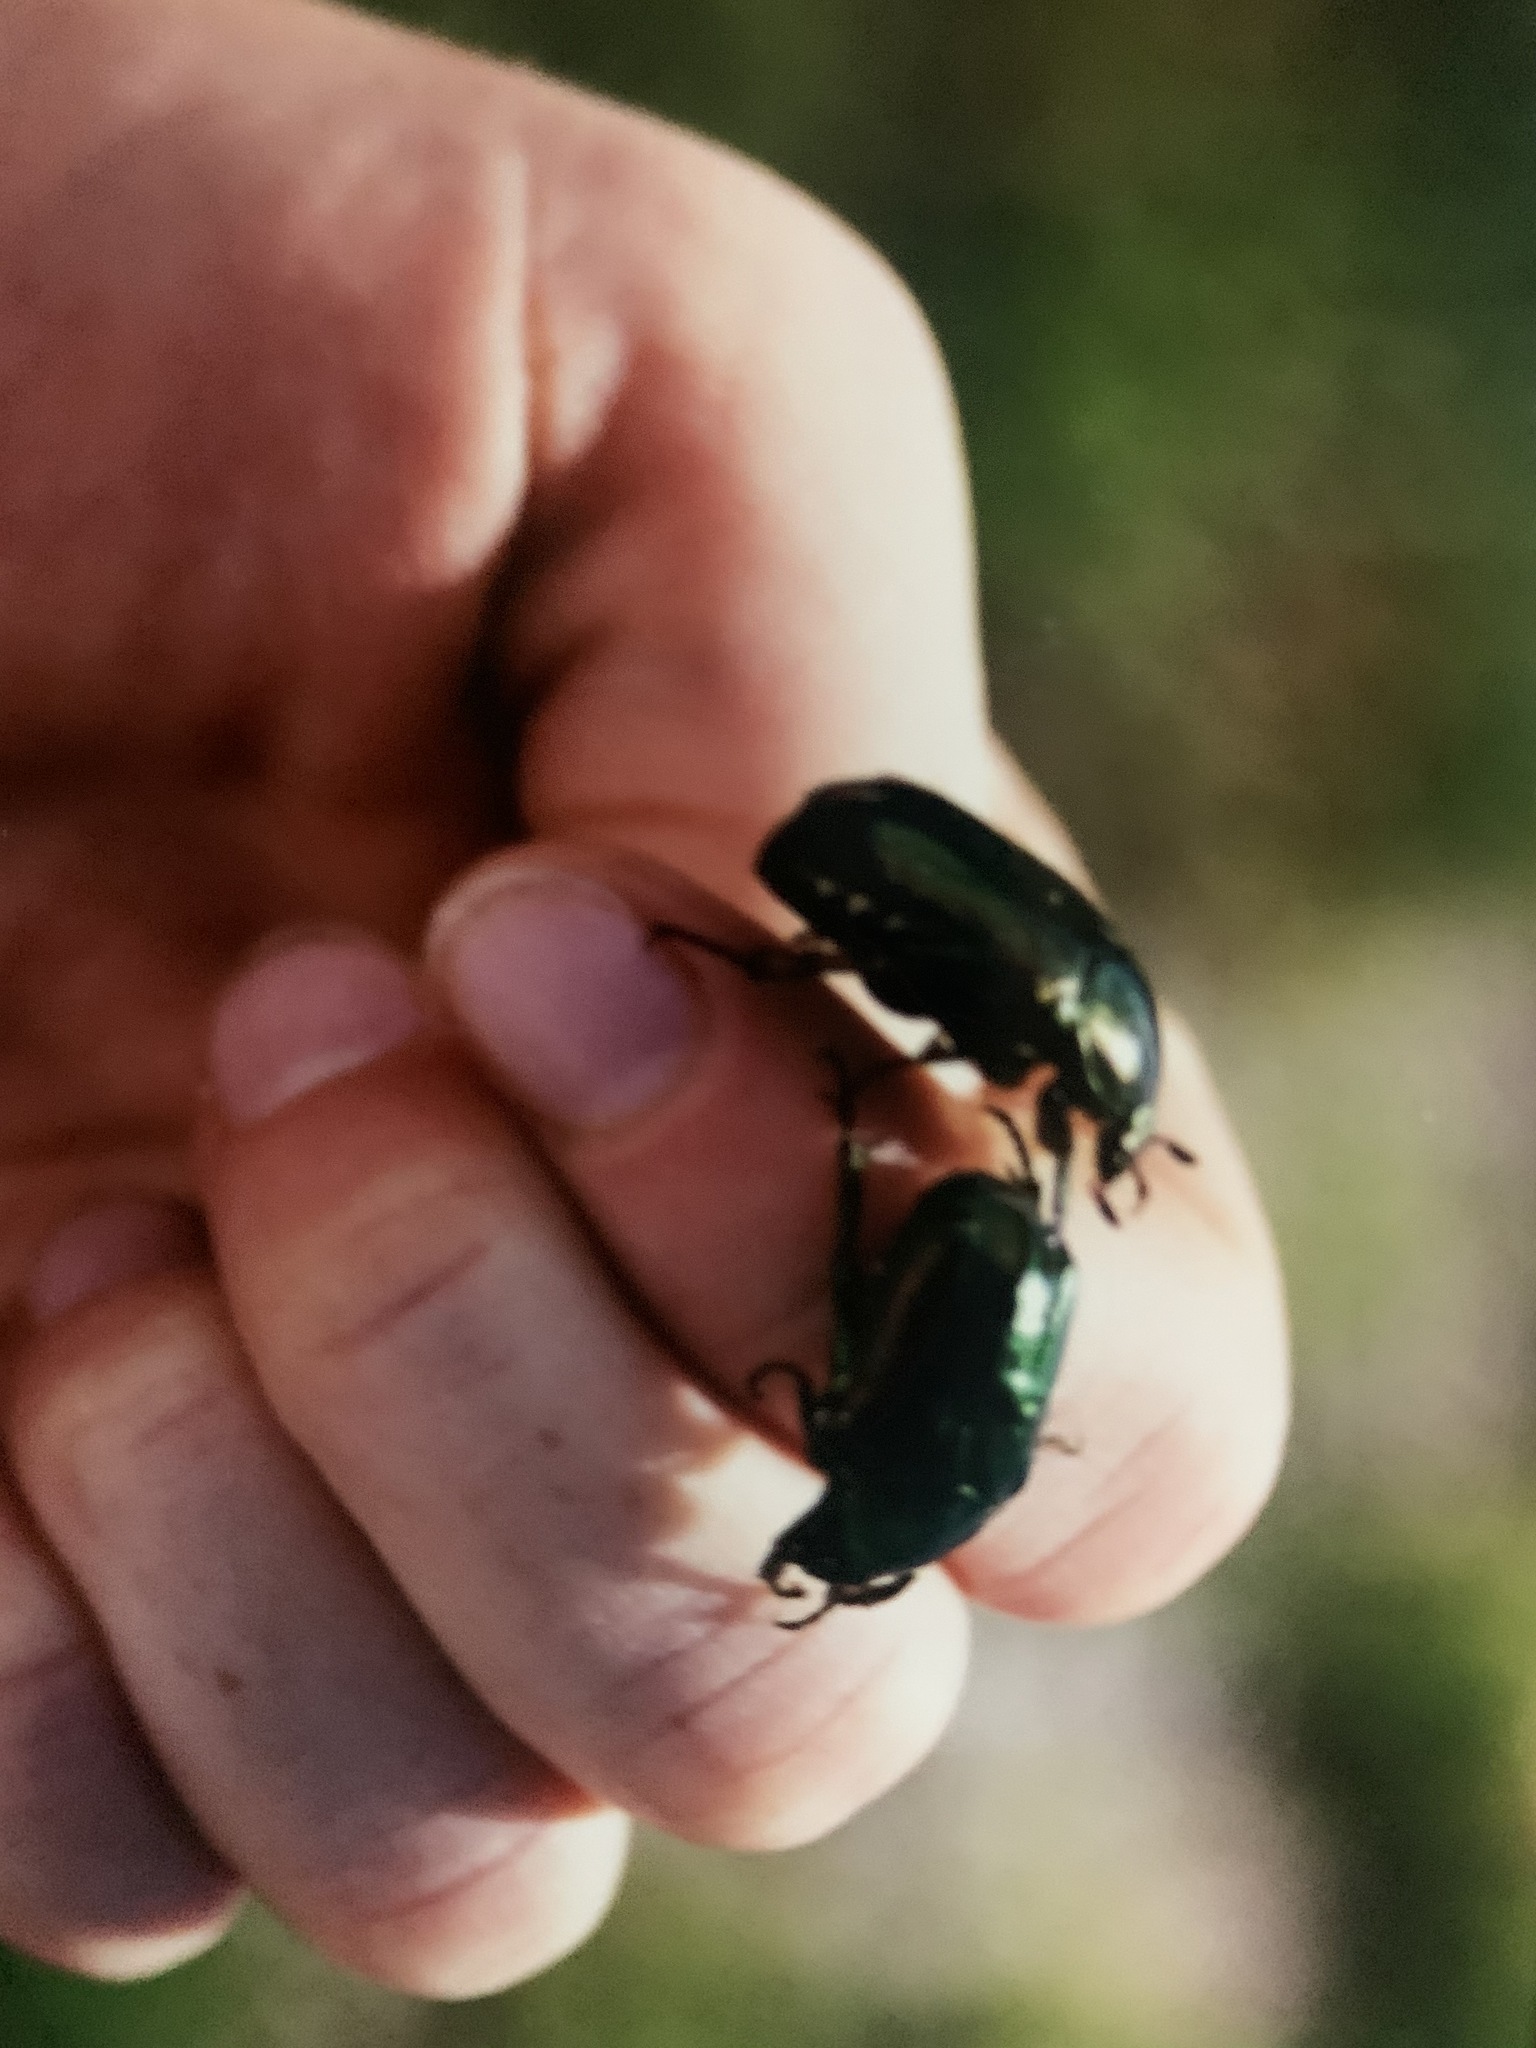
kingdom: Animalia
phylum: Arthropoda
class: Insecta
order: Coleoptera
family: Scarabaeidae
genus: Protaetia
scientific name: Protaetia pryeri
